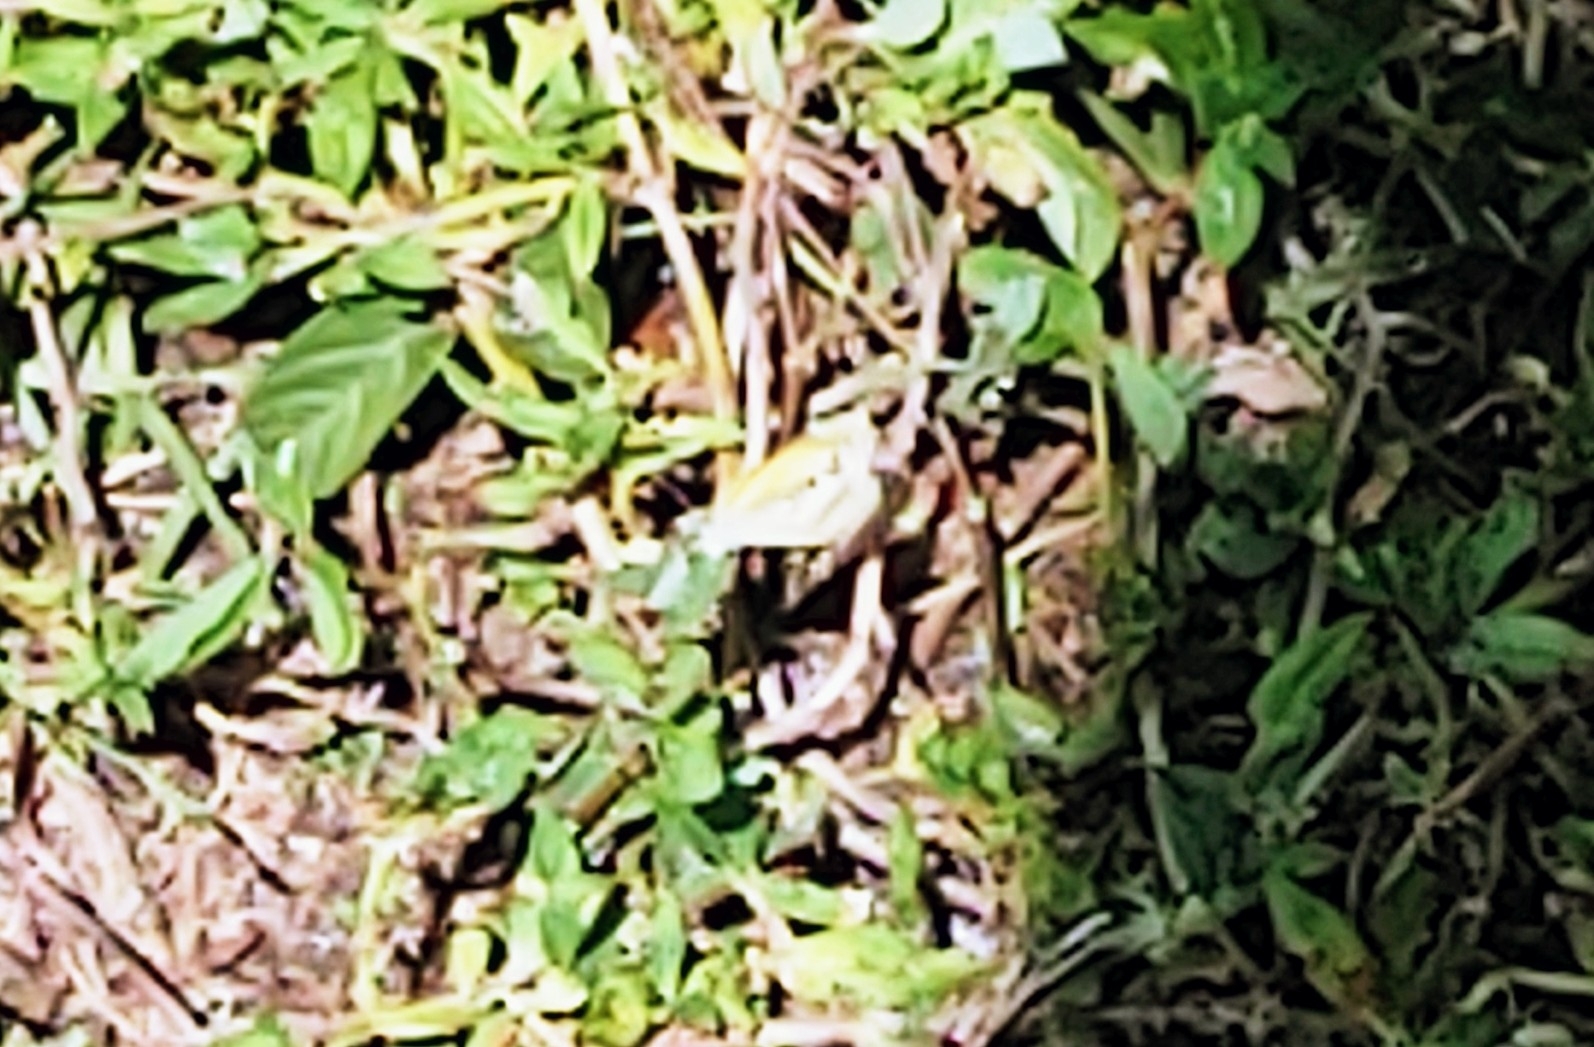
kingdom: Animalia
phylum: Arthropoda
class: Insecta
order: Lepidoptera
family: Pieridae
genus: Nathalis
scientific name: Nathalis iole
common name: Dainty sulphur
